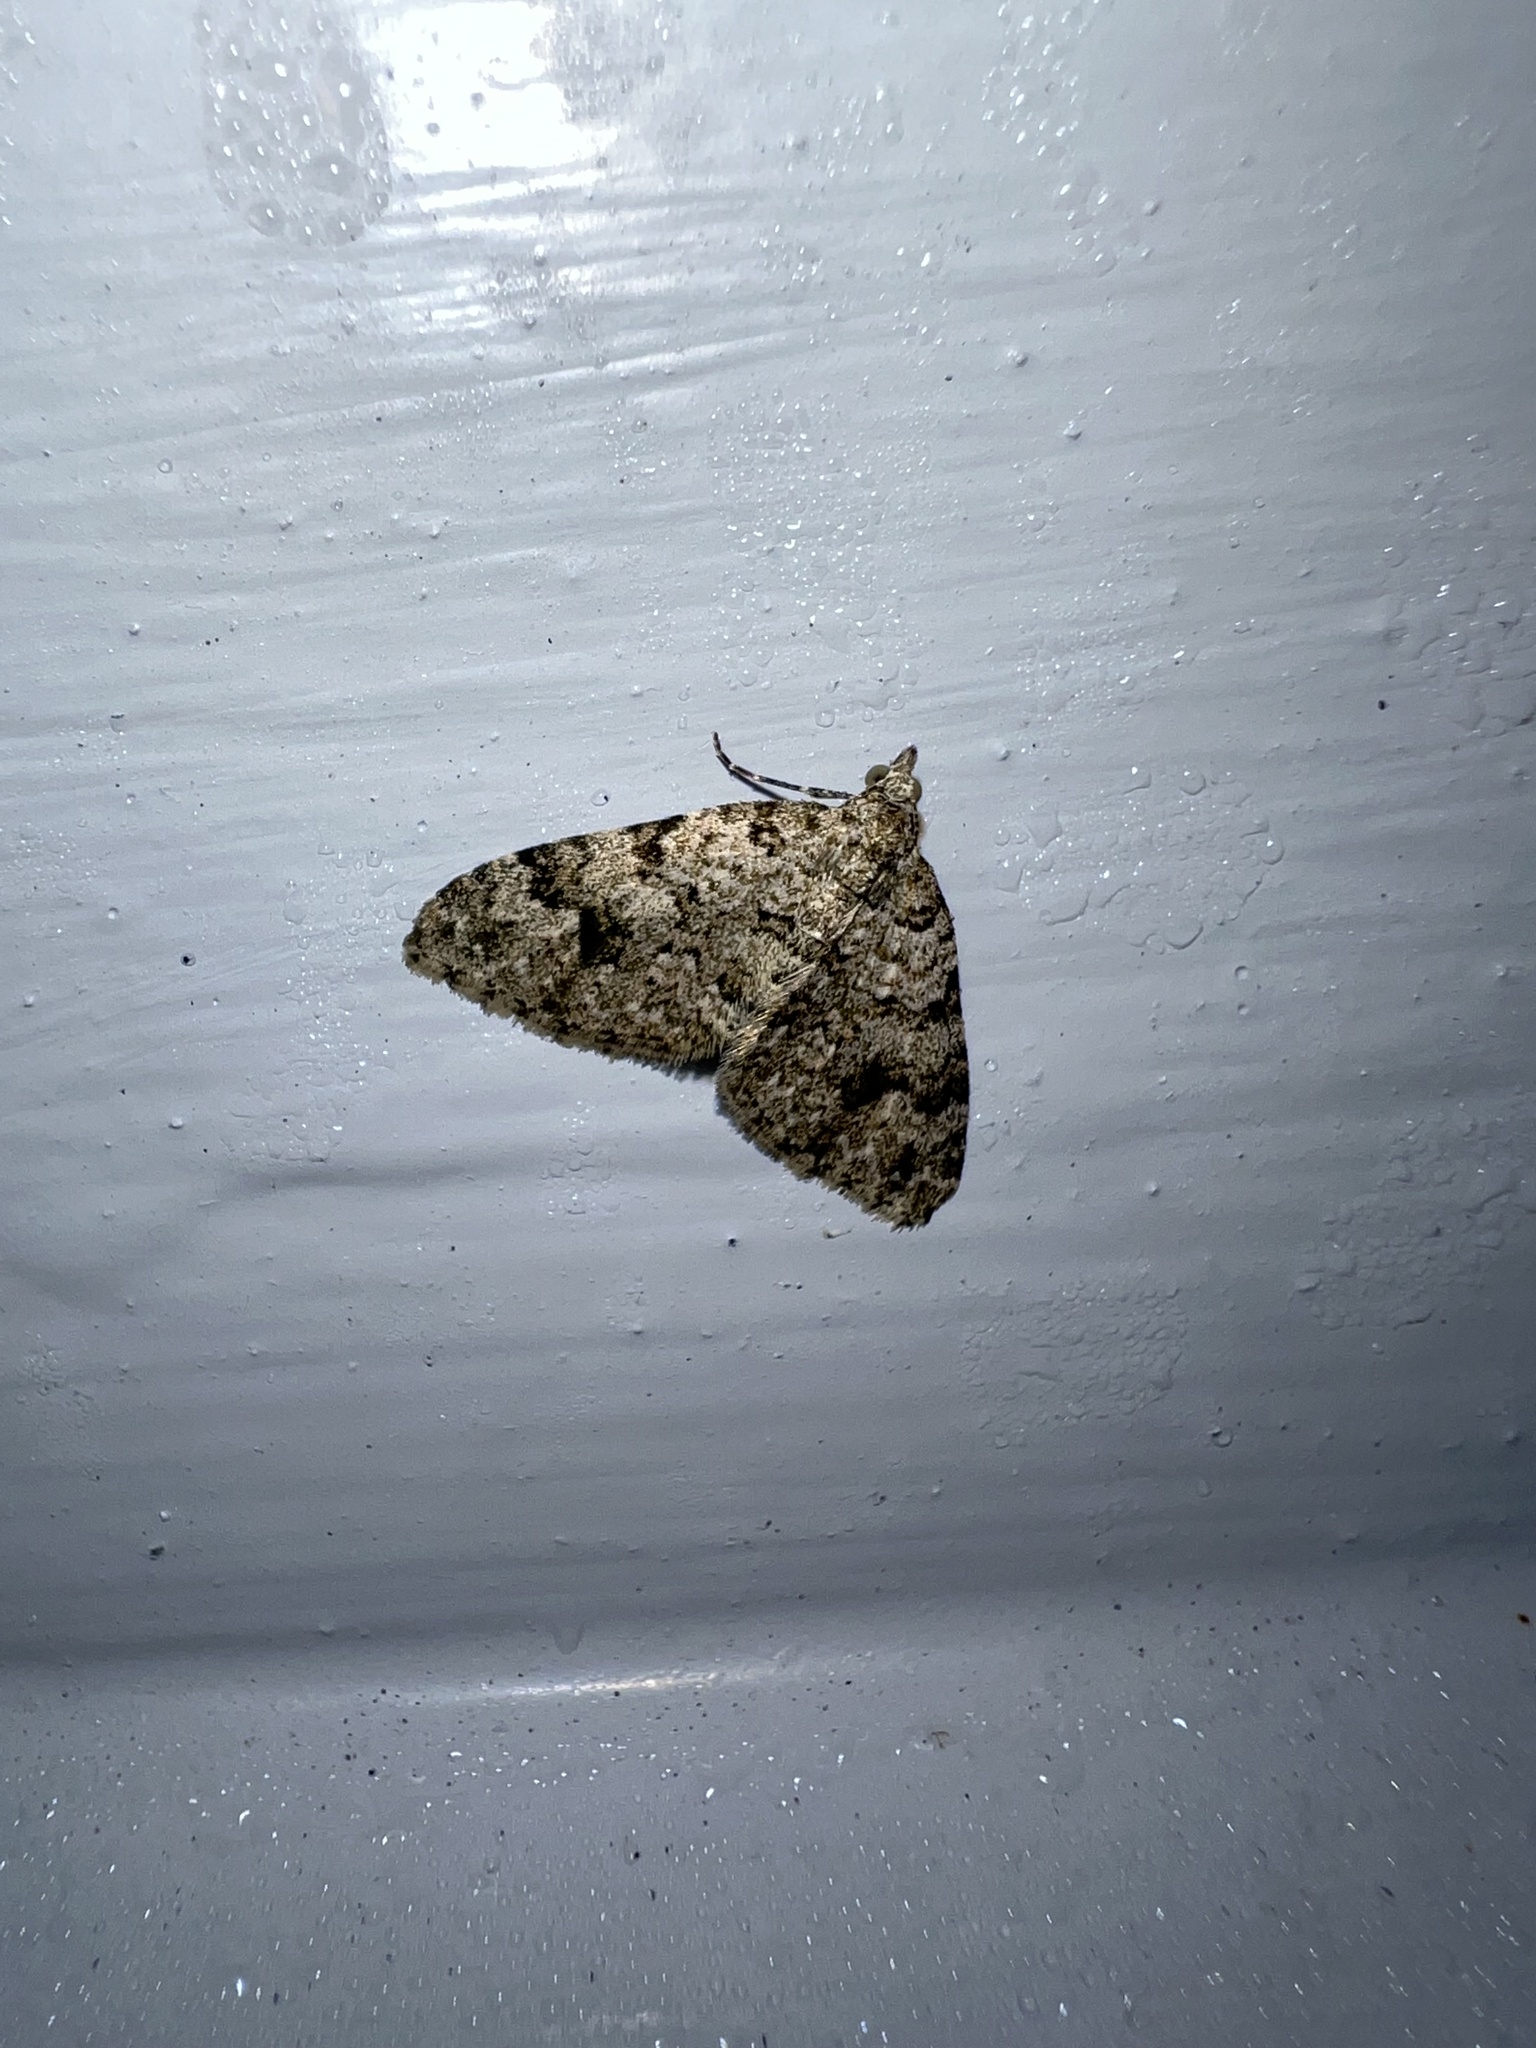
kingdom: Animalia
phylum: Arthropoda
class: Insecta
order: Lepidoptera
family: Geometridae
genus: Helastia
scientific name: Helastia cinerearia
